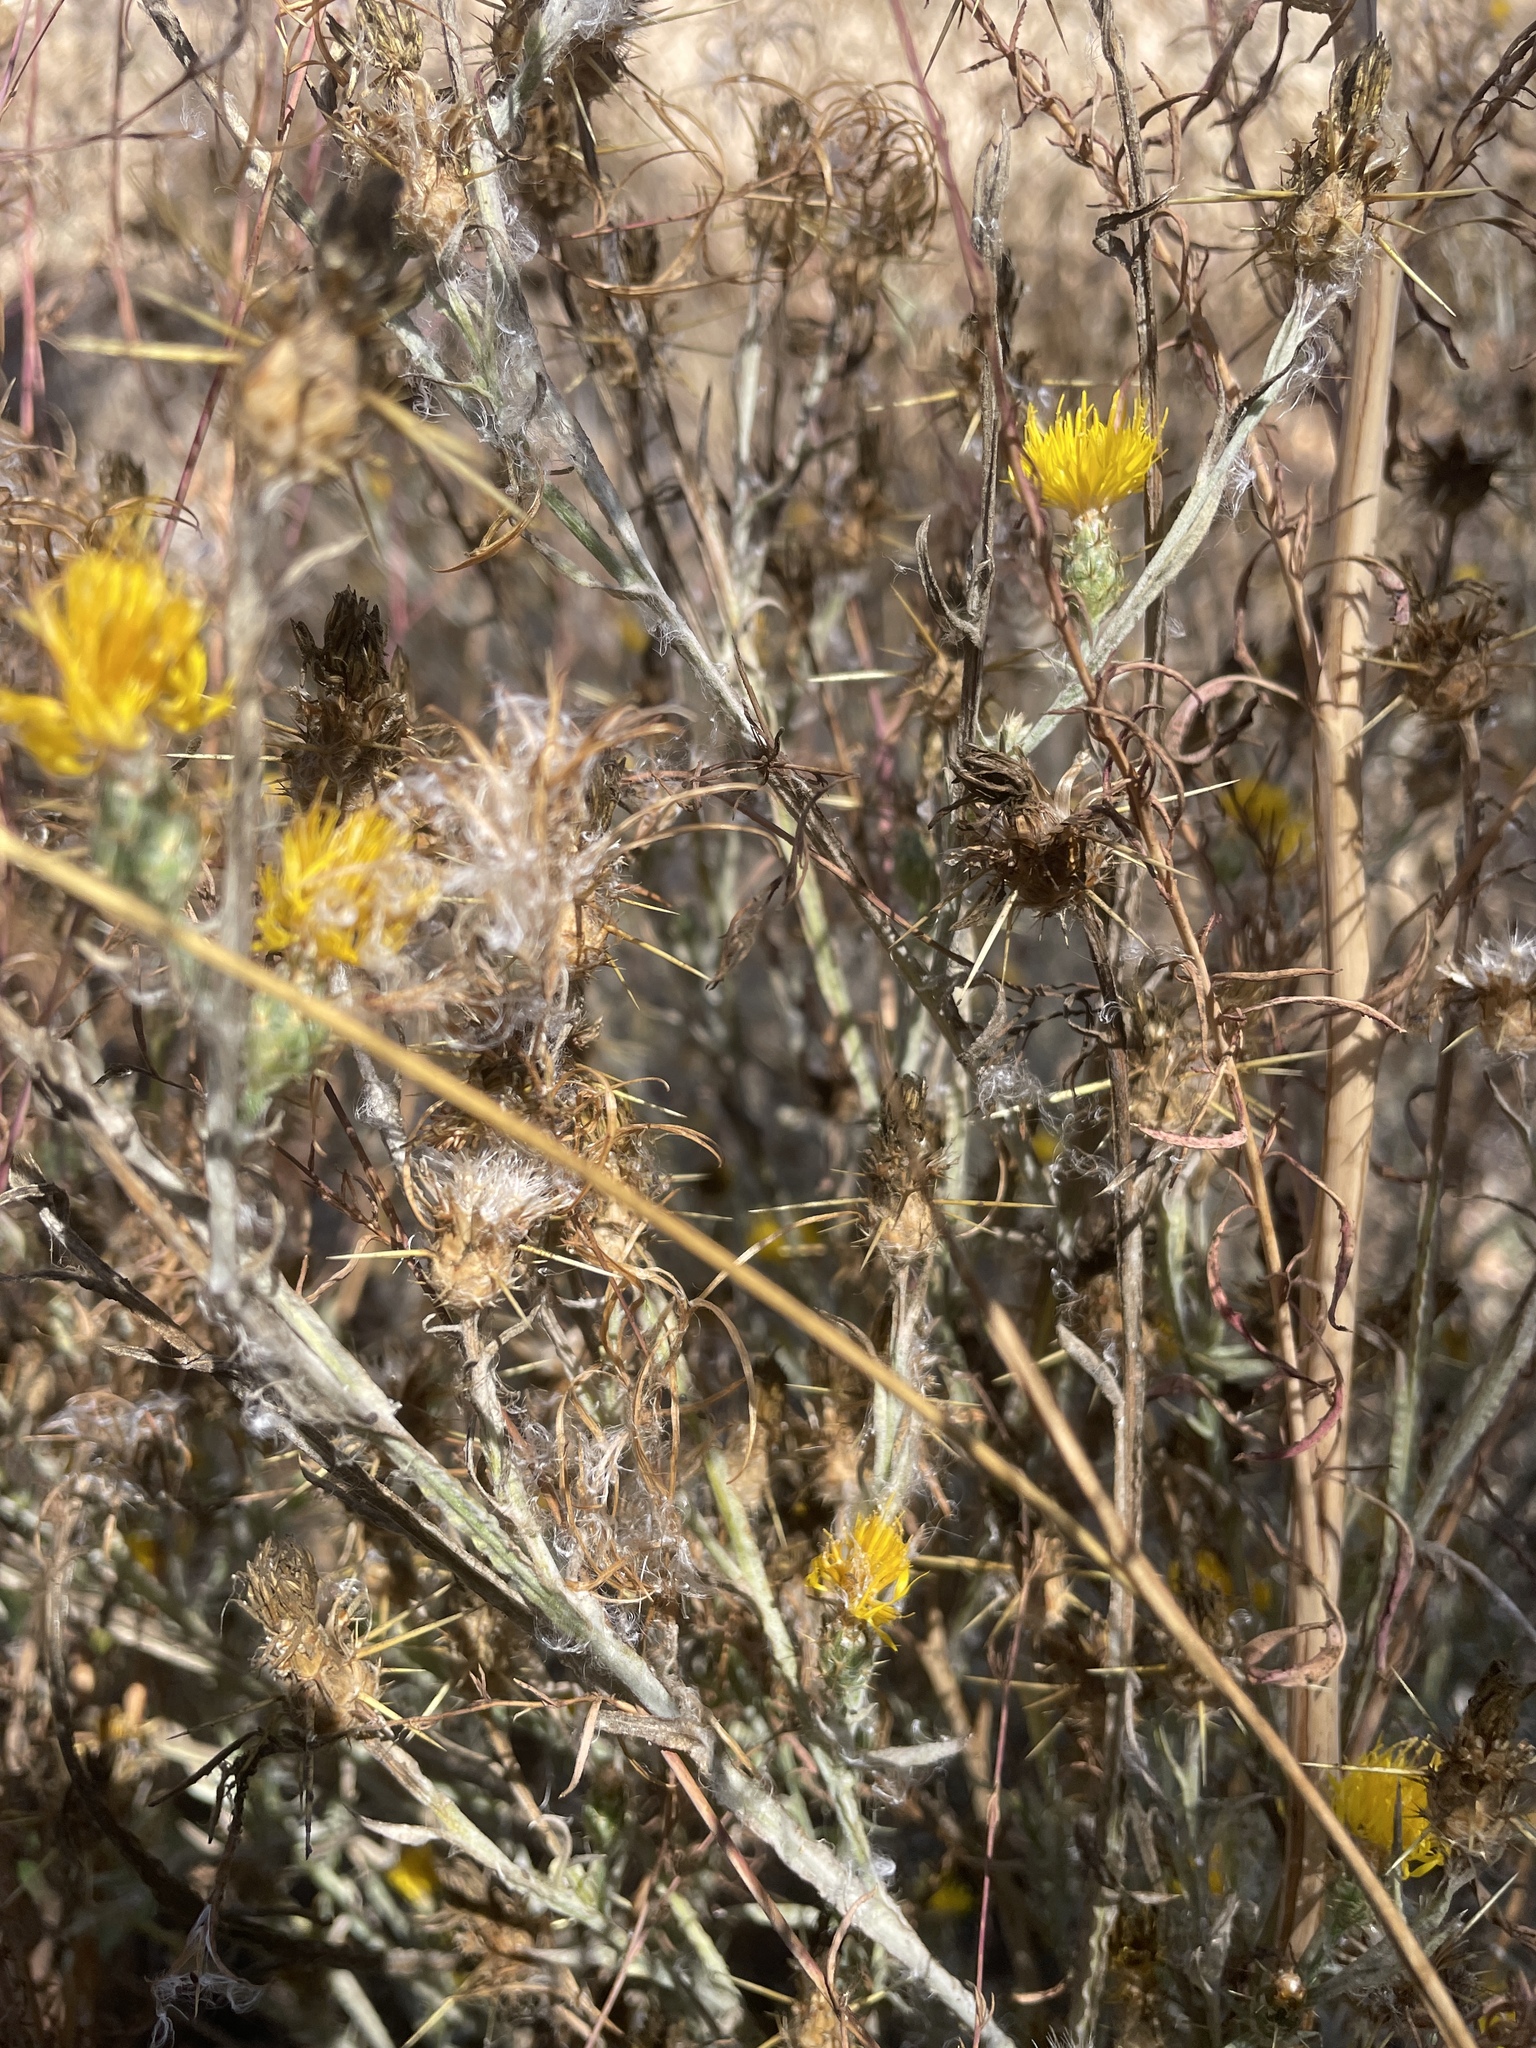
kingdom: Plantae
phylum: Tracheophyta
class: Magnoliopsida
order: Asterales
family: Asteraceae
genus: Centaurea
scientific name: Centaurea solstitialis
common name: Yellow star-thistle
